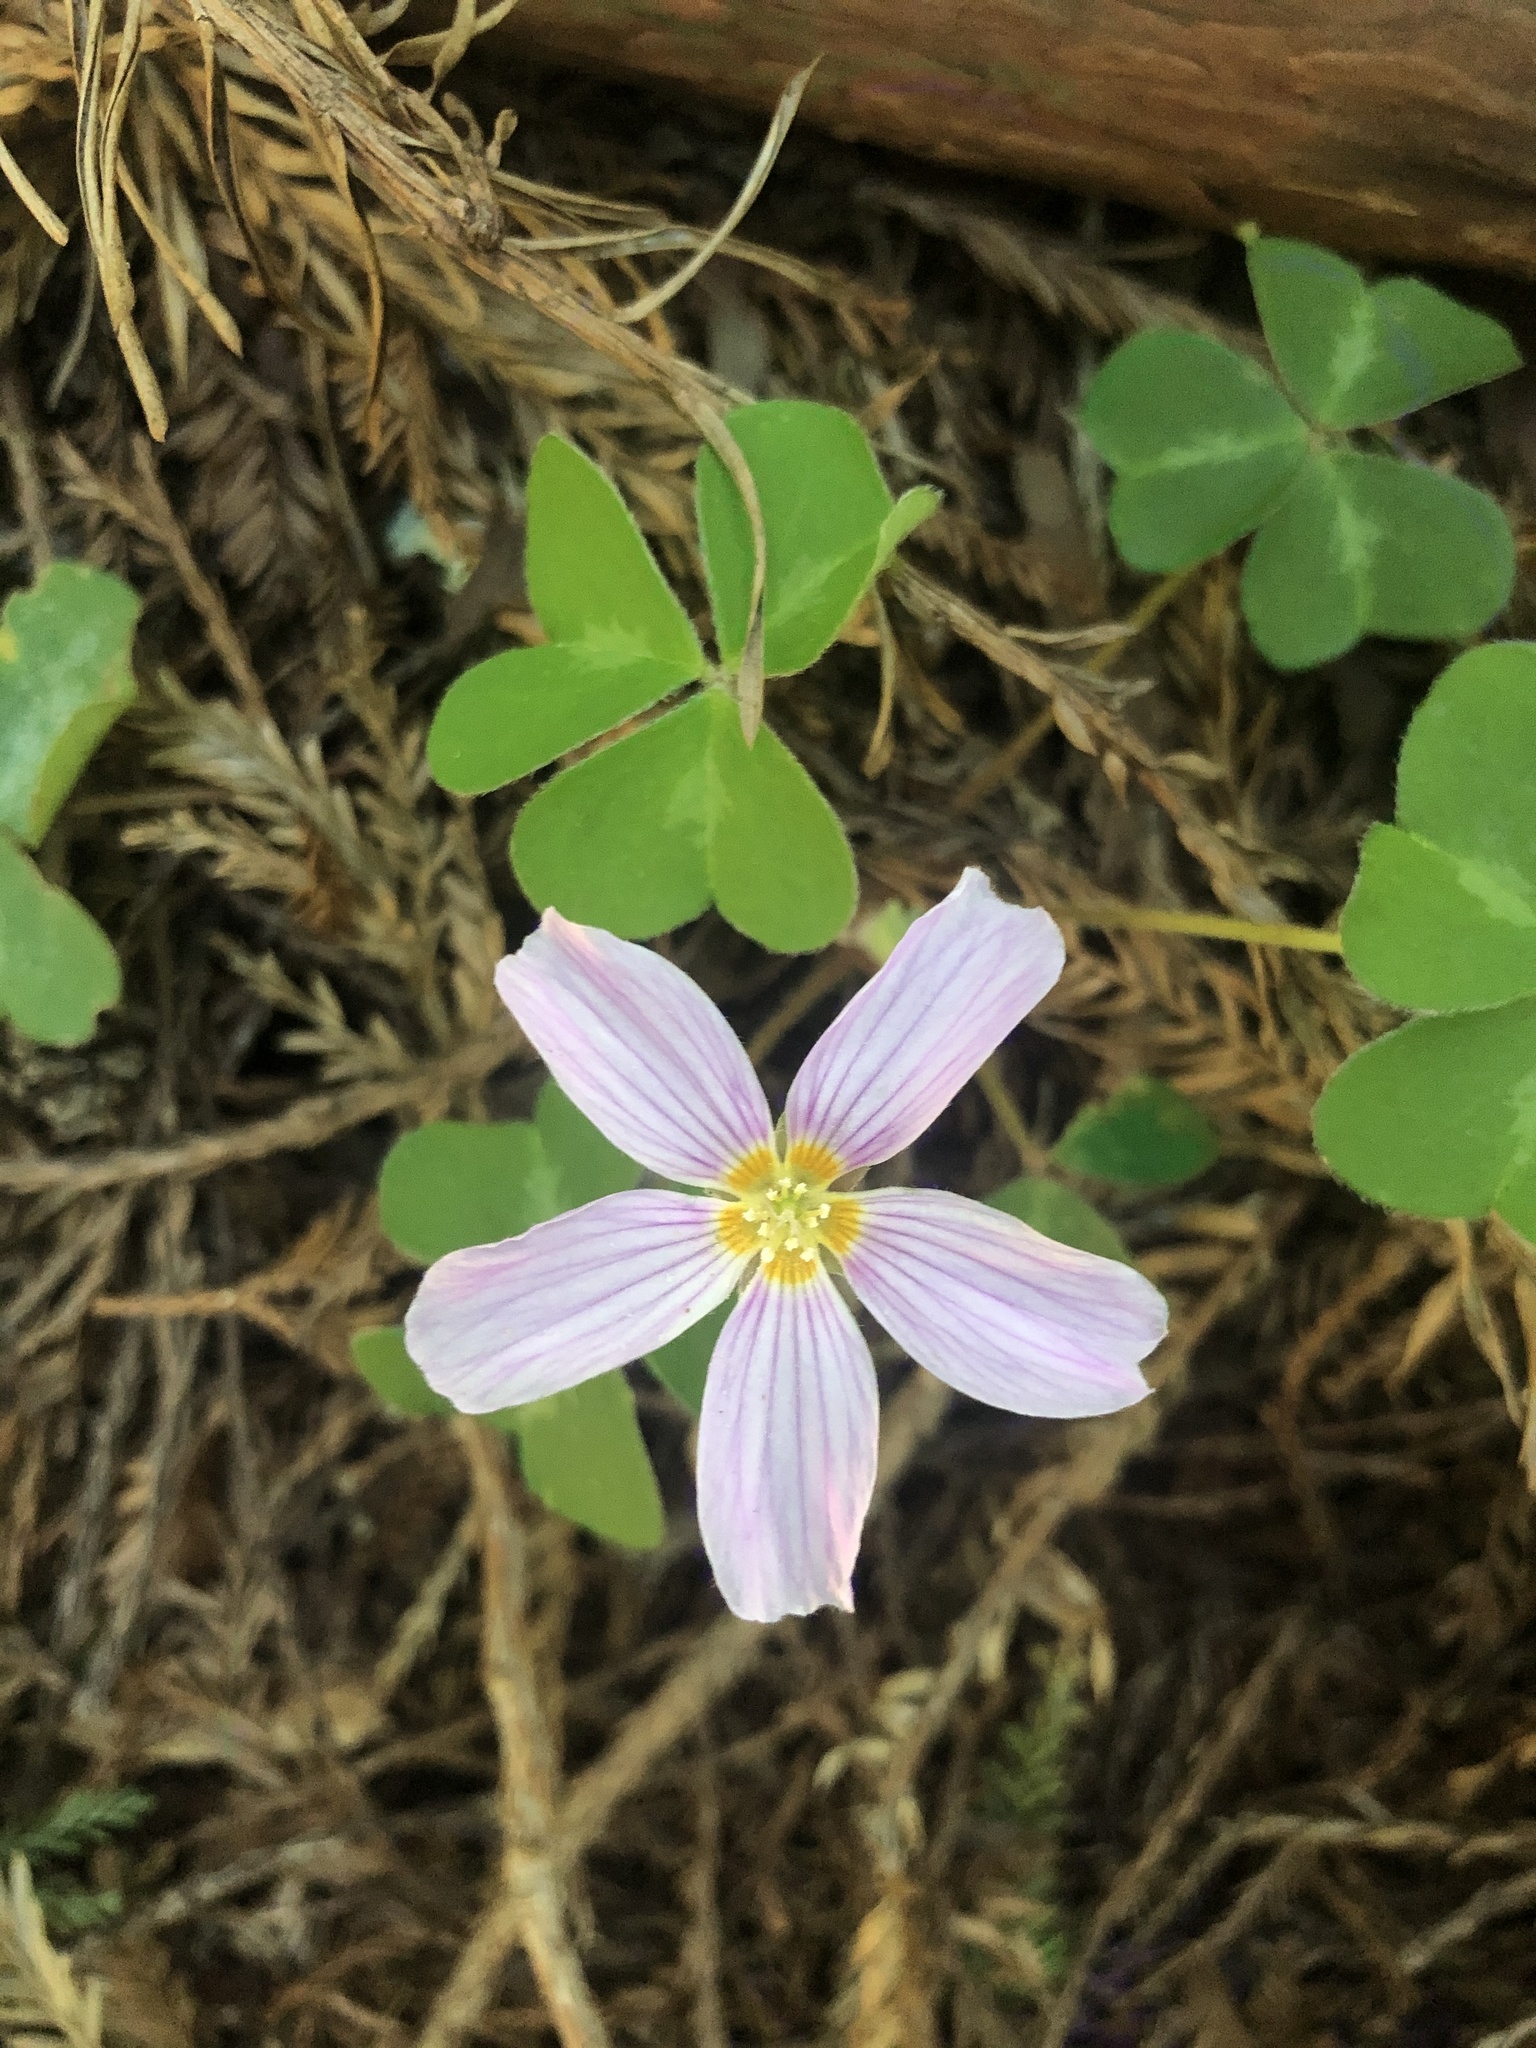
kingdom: Plantae
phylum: Tracheophyta
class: Magnoliopsida
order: Oxalidales
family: Oxalidaceae
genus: Oxalis
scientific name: Oxalis oregana
